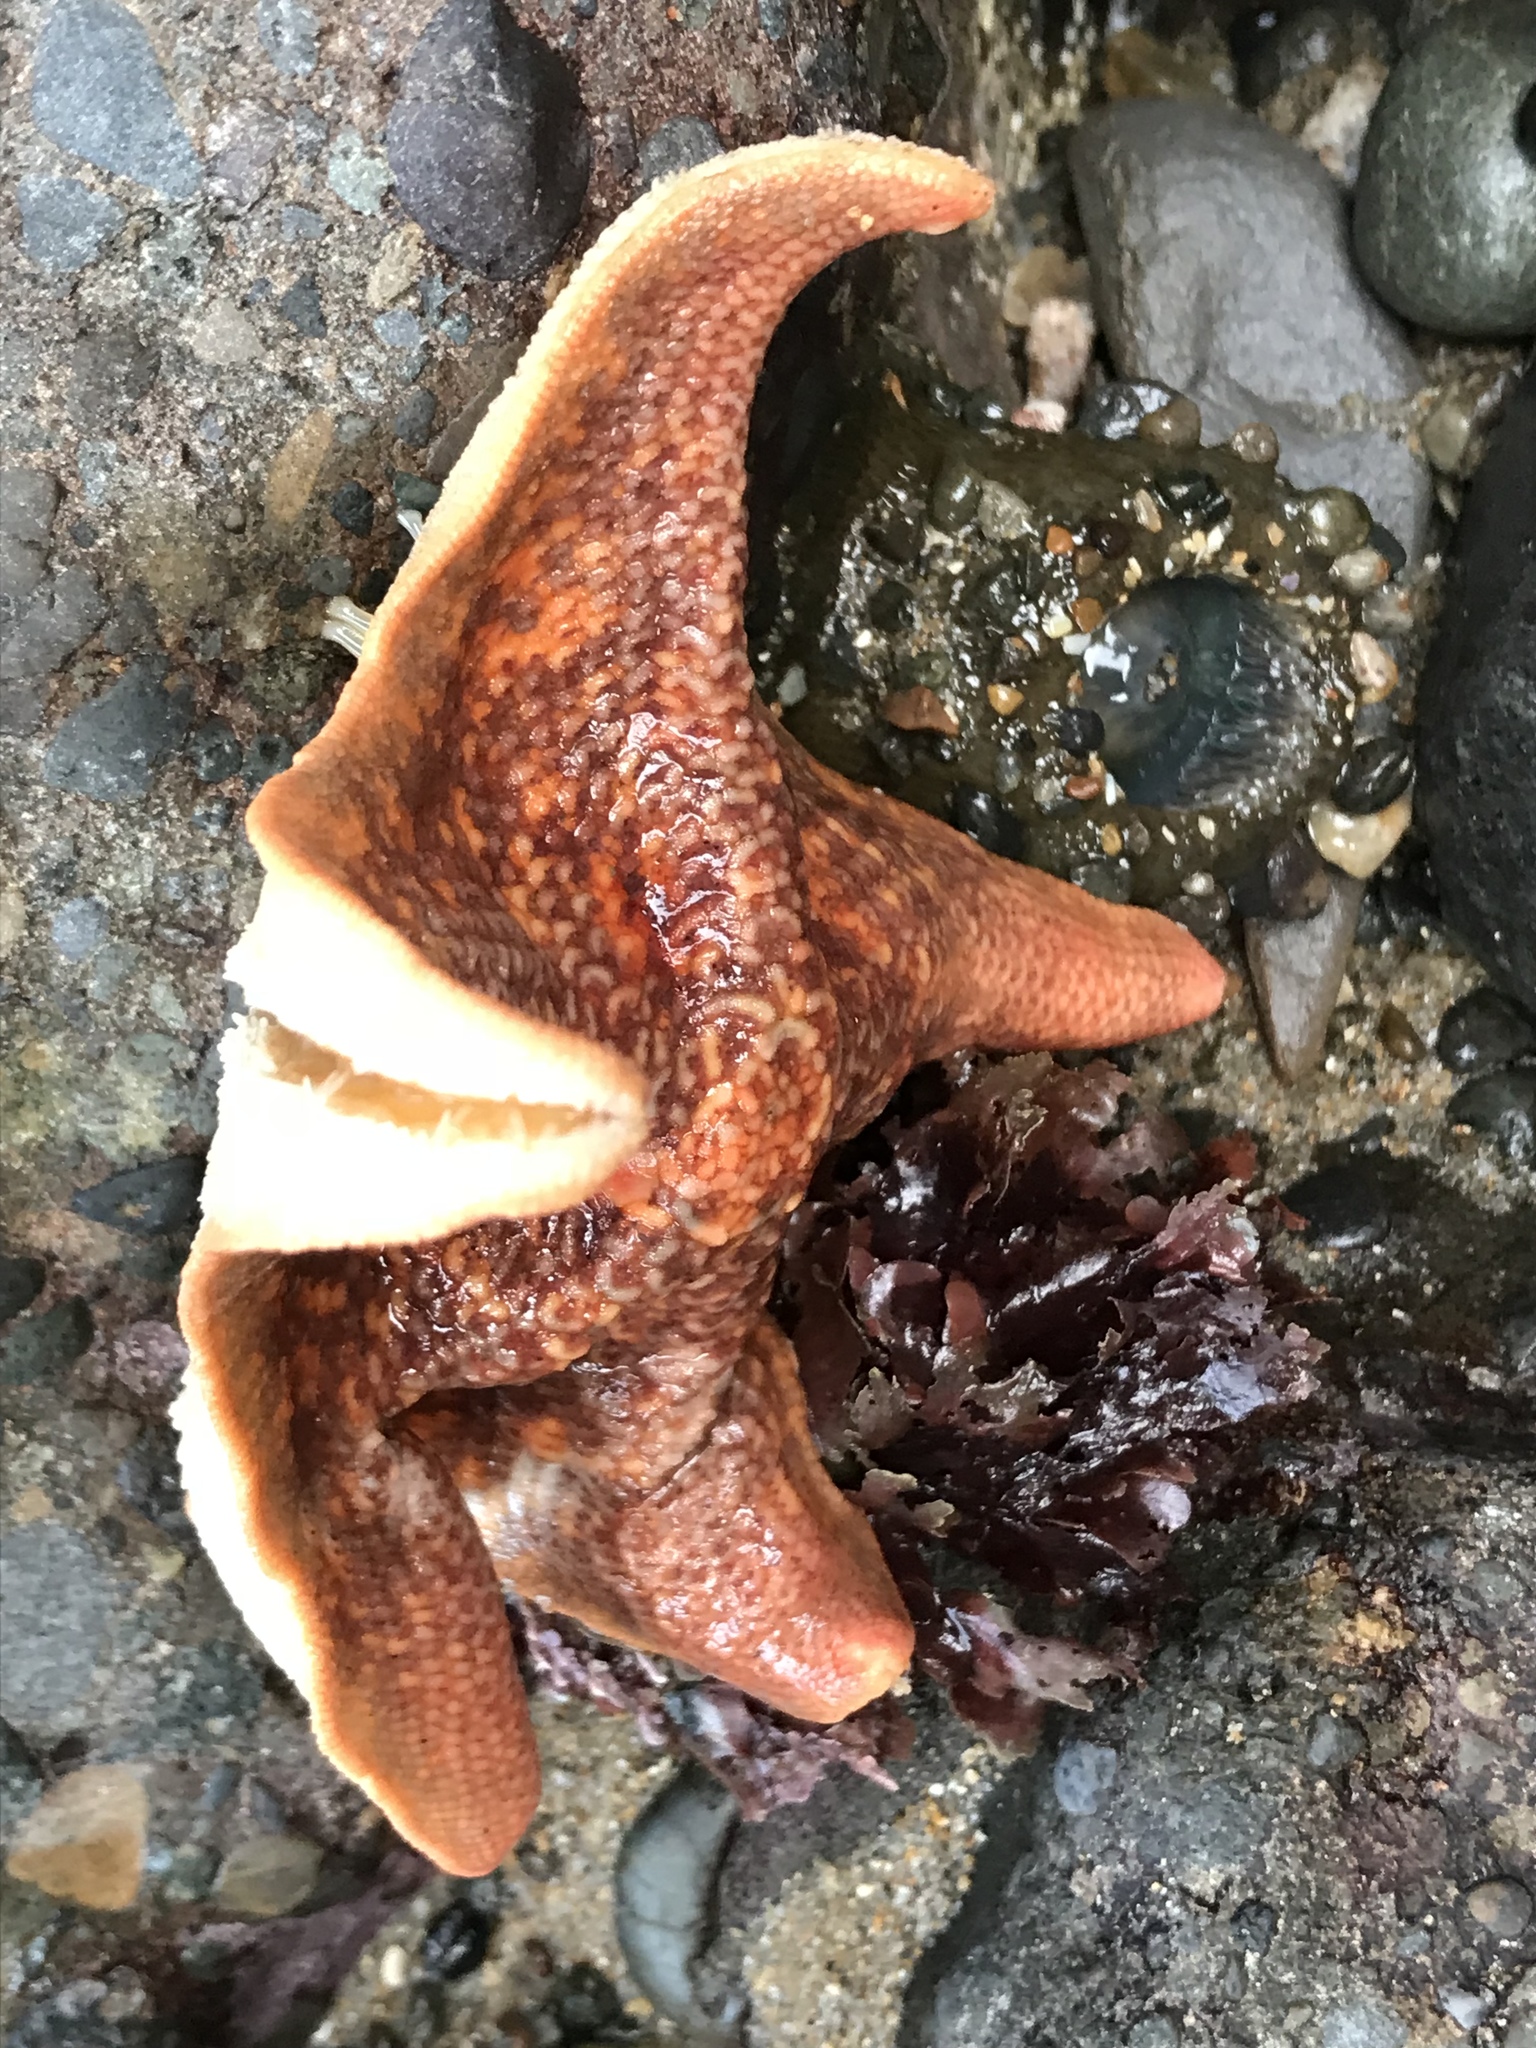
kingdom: Animalia
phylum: Echinodermata
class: Asteroidea
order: Valvatida
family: Asterinidae
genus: Patiria
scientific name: Patiria miniata
